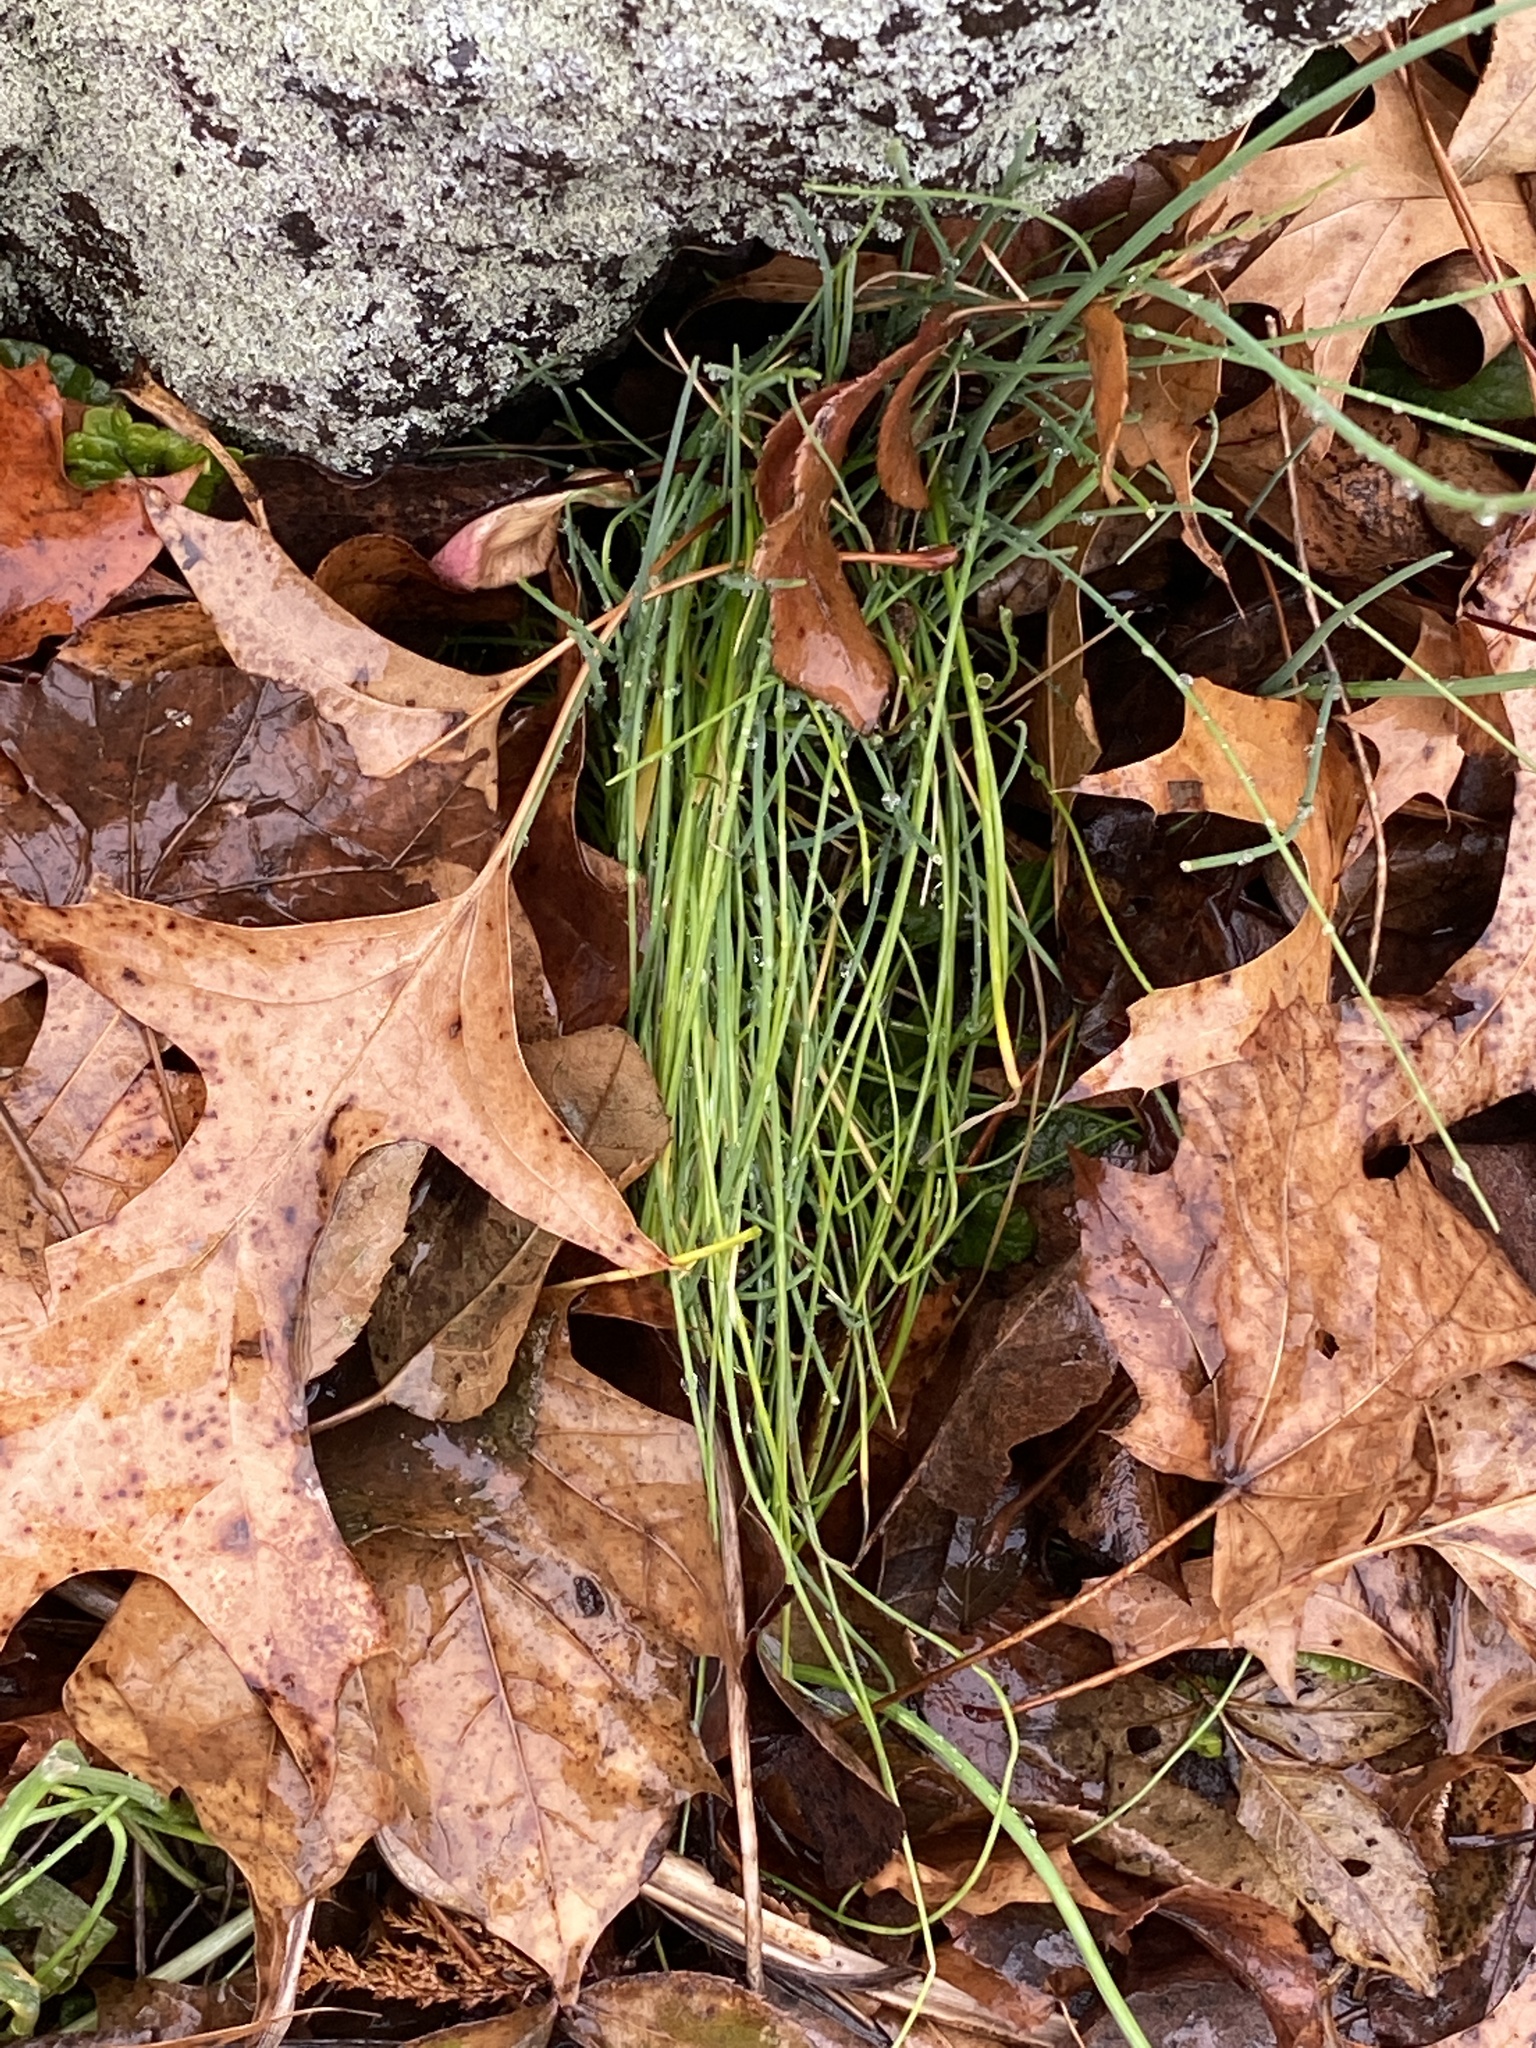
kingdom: Plantae
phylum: Tracheophyta
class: Liliopsida
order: Asparagales
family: Amaryllidaceae
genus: Allium
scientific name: Allium vineale
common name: Crow garlic
